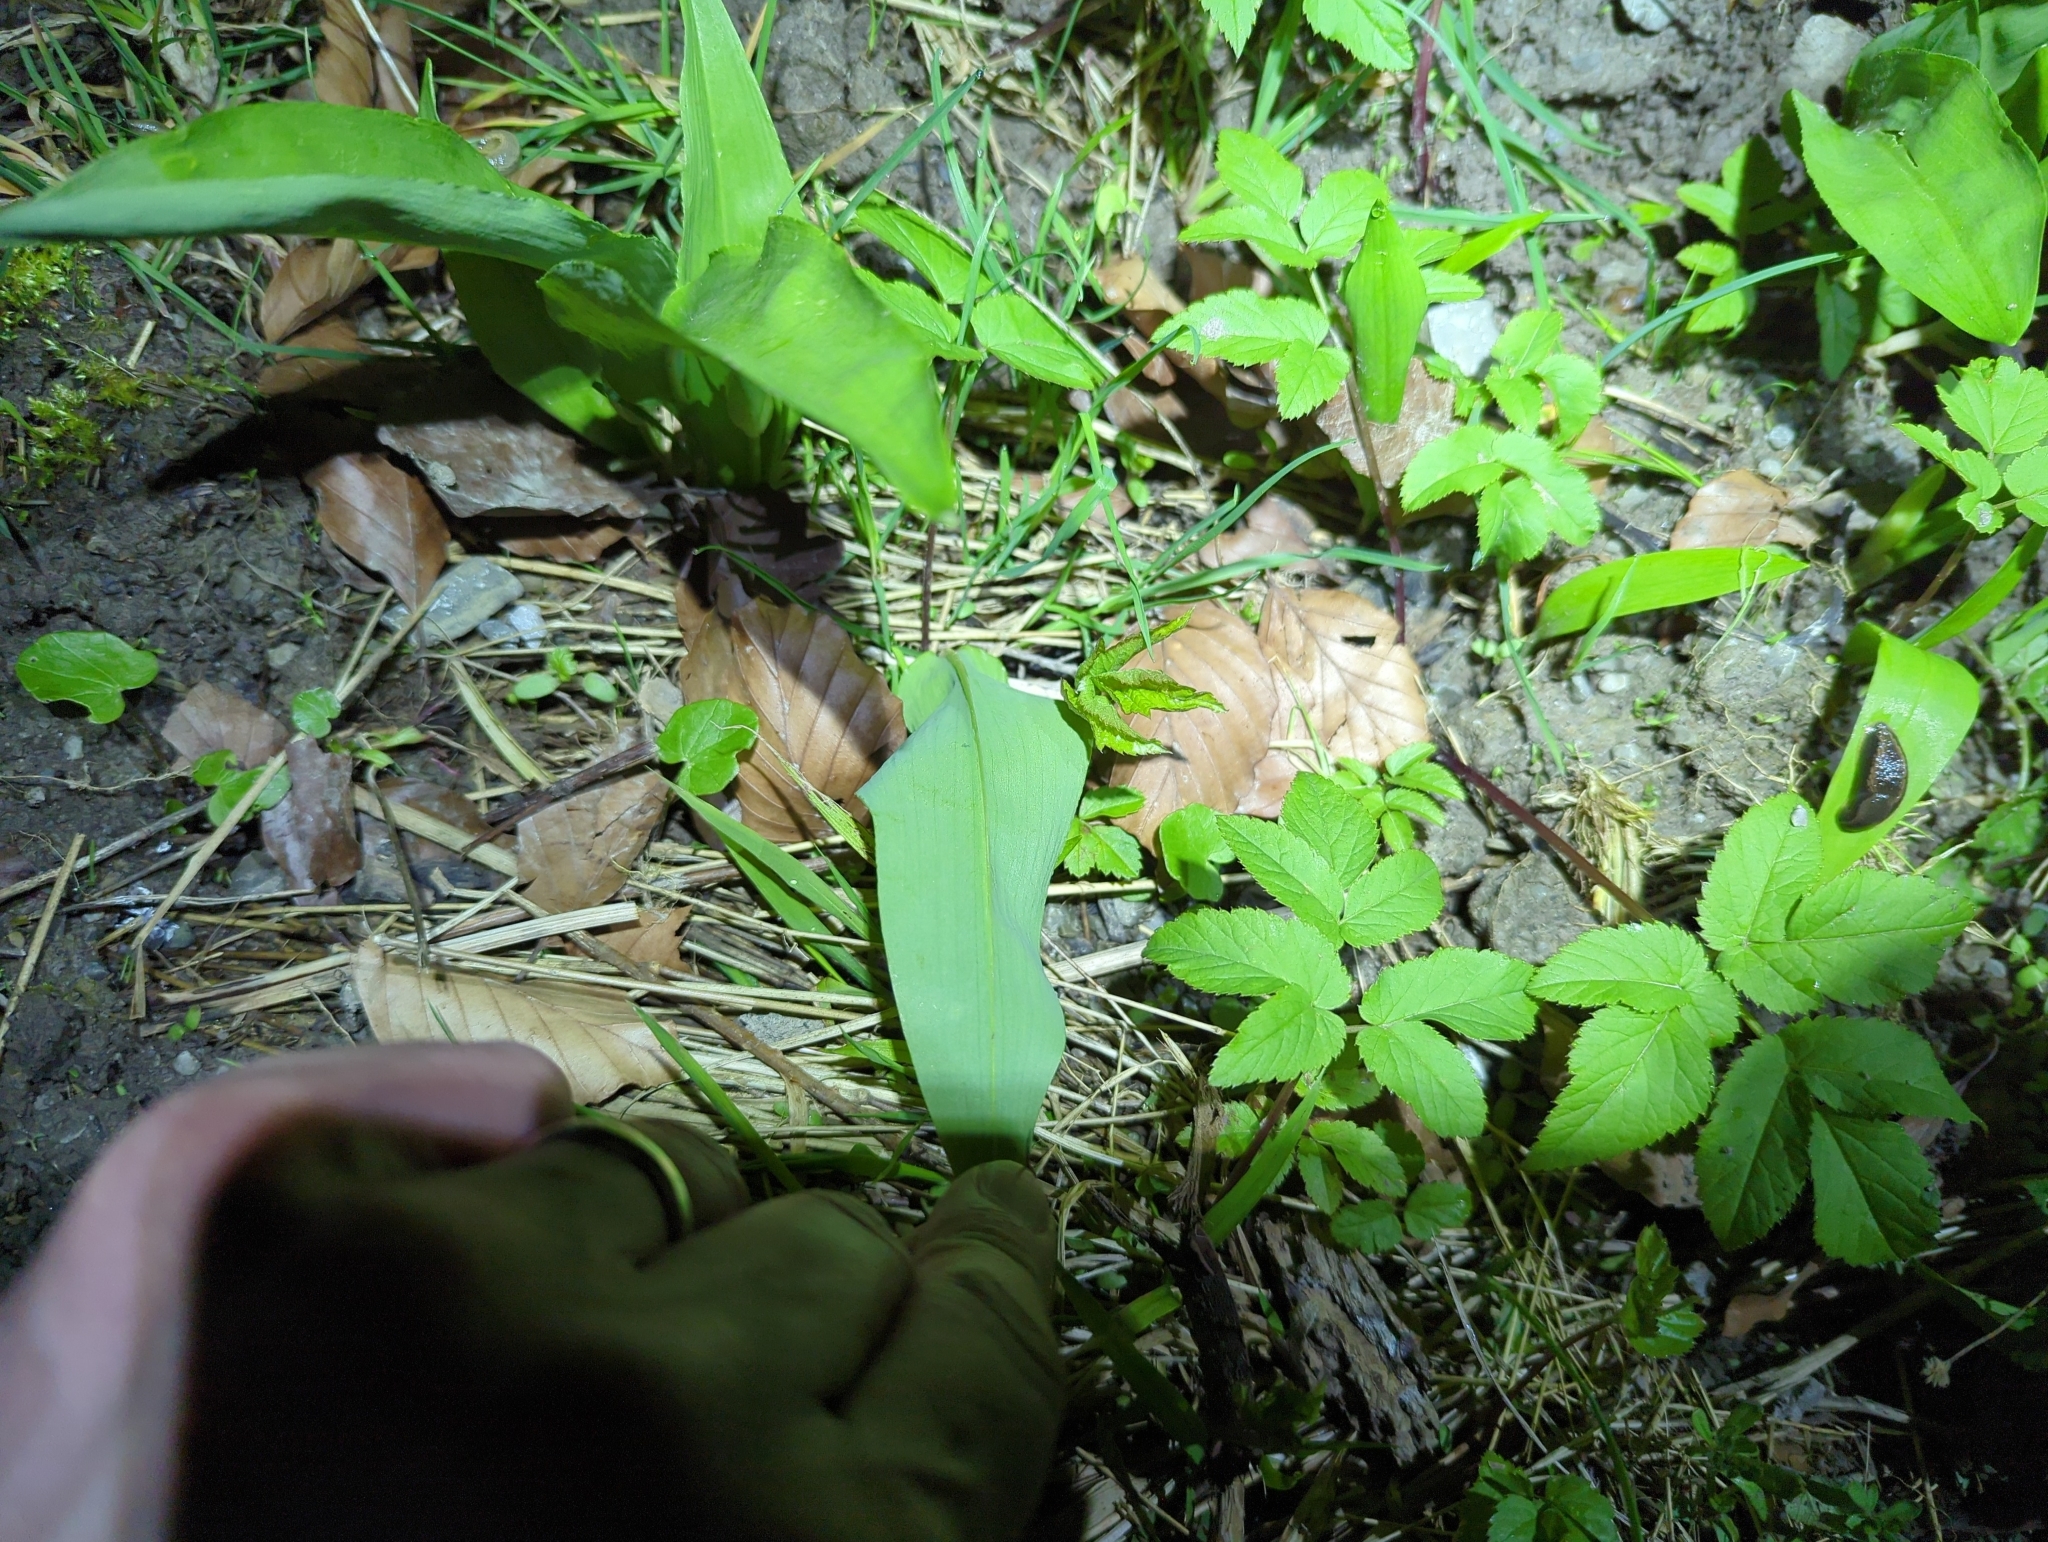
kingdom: Plantae
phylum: Tracheophyta
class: Liliopsida
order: Asparagales
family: Amaryllidaceae
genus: Allium
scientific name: Allium ursinum
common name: Ramsons
